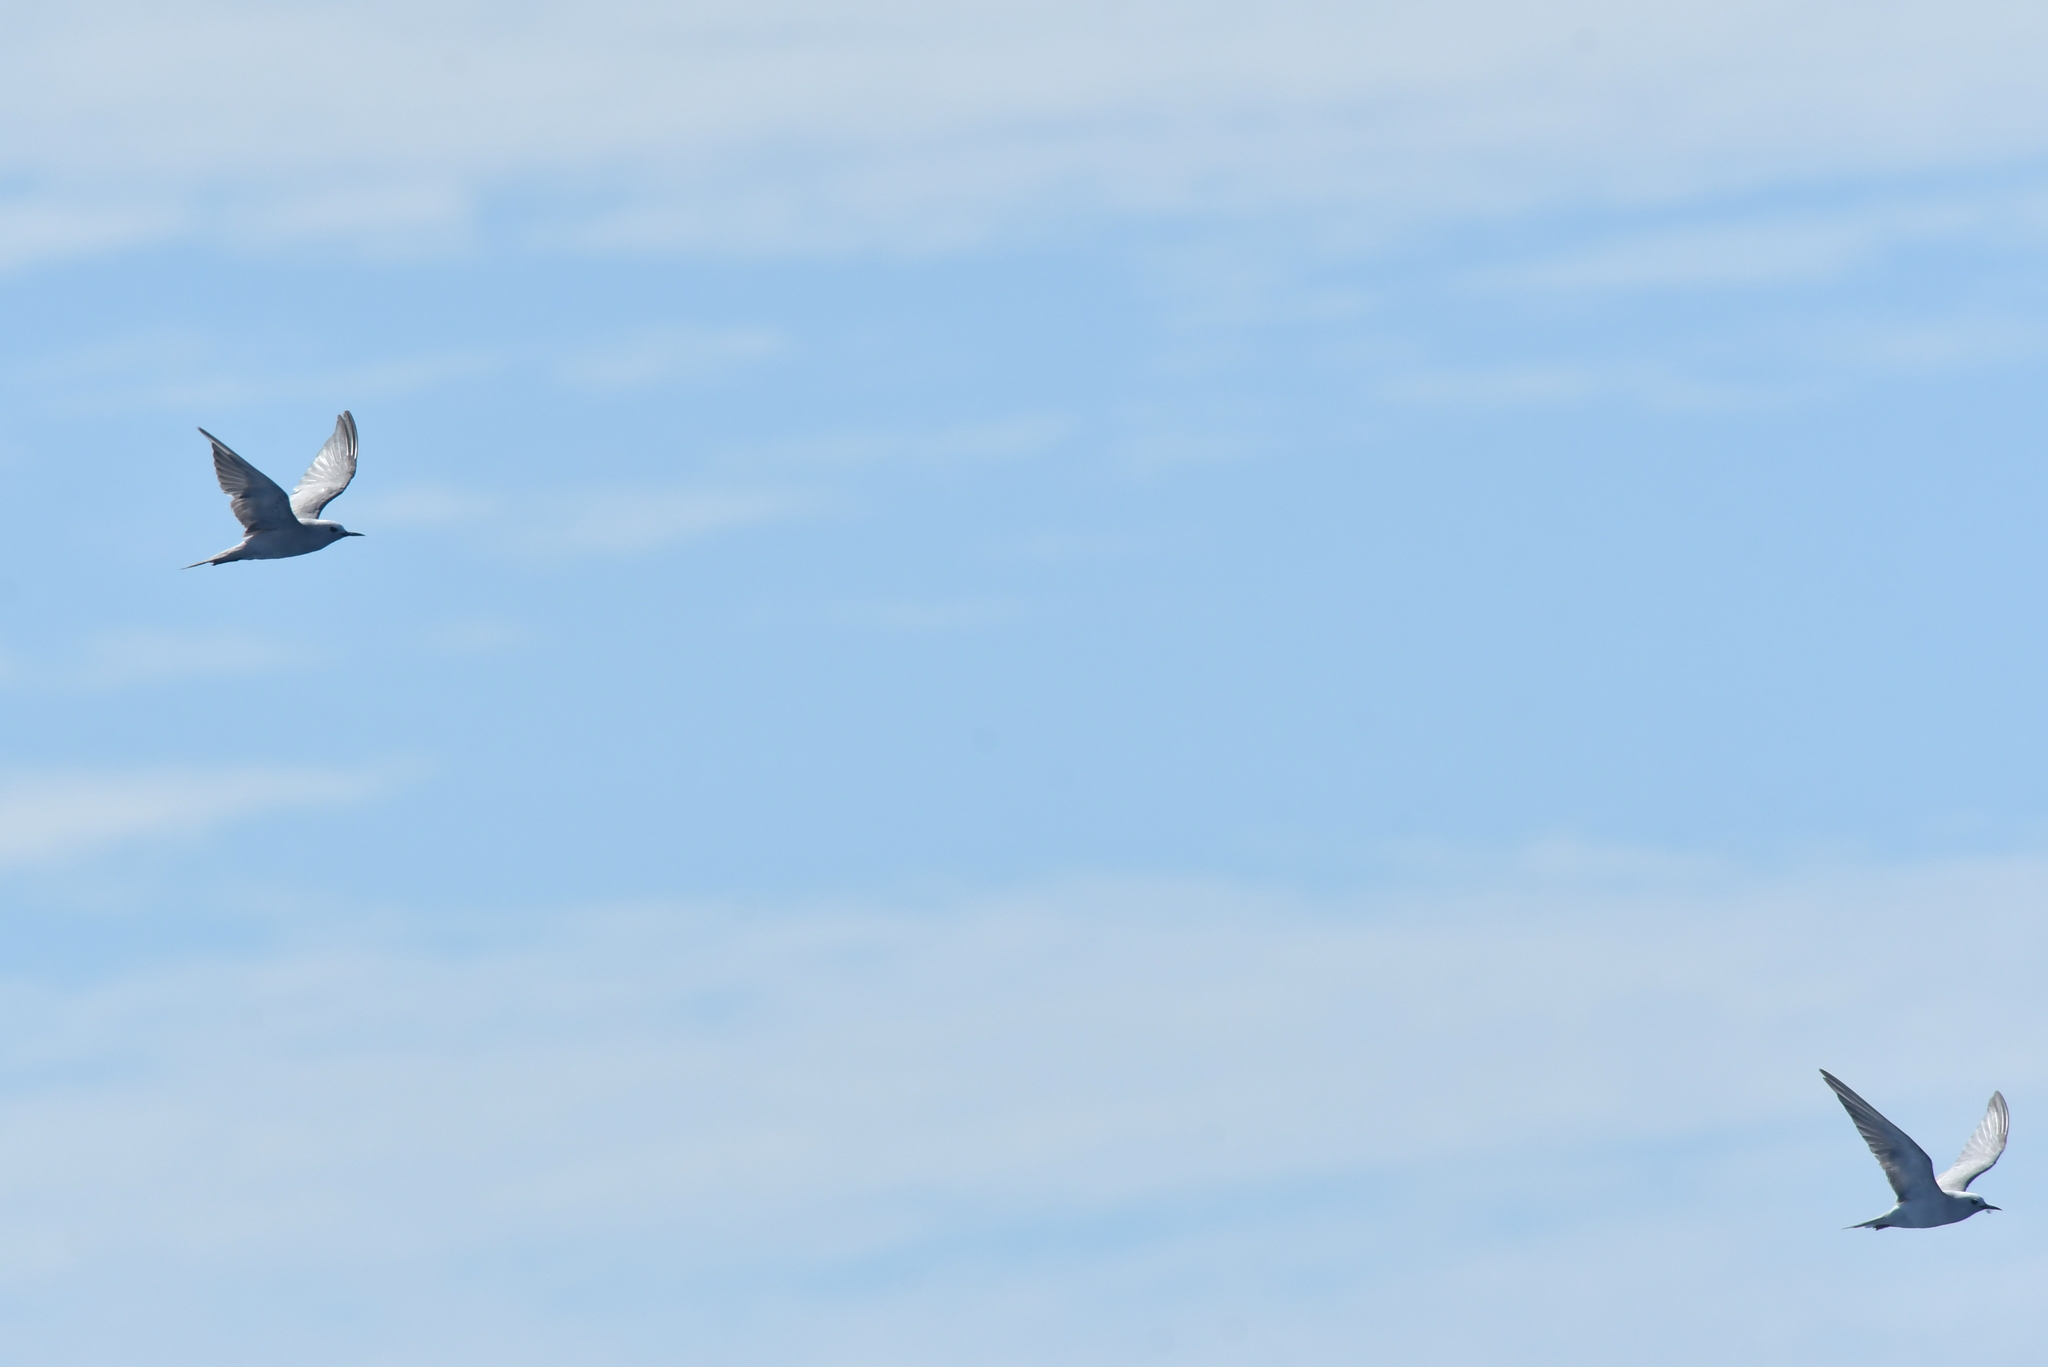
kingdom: Animalia
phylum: Chordata
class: Aves
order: Charadriiformes
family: Laridae
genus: Anous
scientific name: Anous albivitta
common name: Gray noddy
